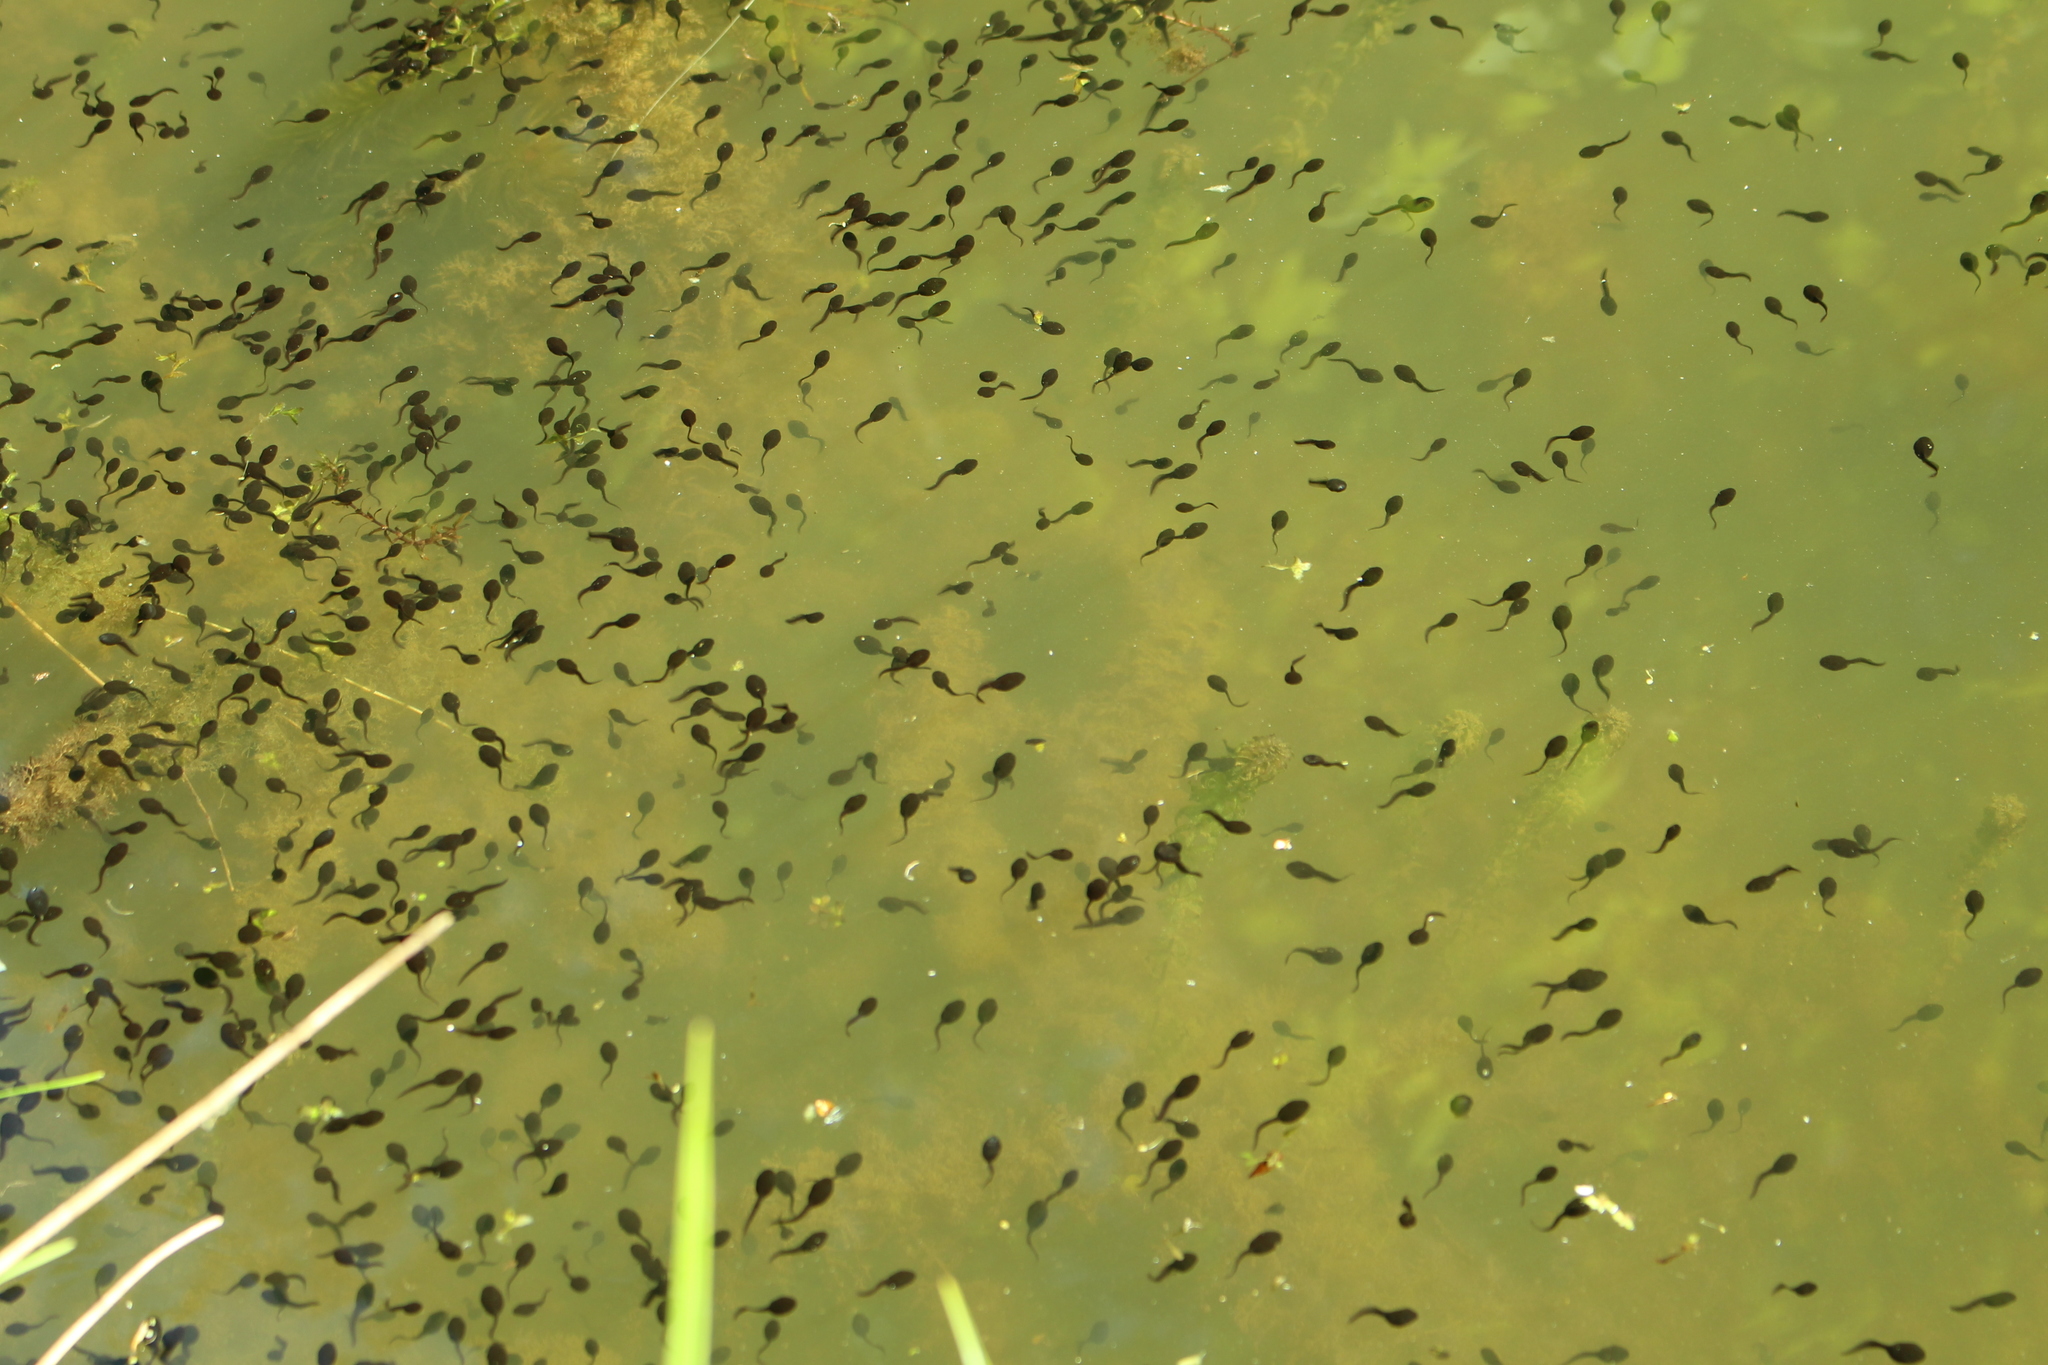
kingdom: Animalia
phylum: Chordata
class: Amphibia
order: Anura
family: Bufonidae
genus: Bufo
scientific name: Bufo bufo
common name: Common toad
